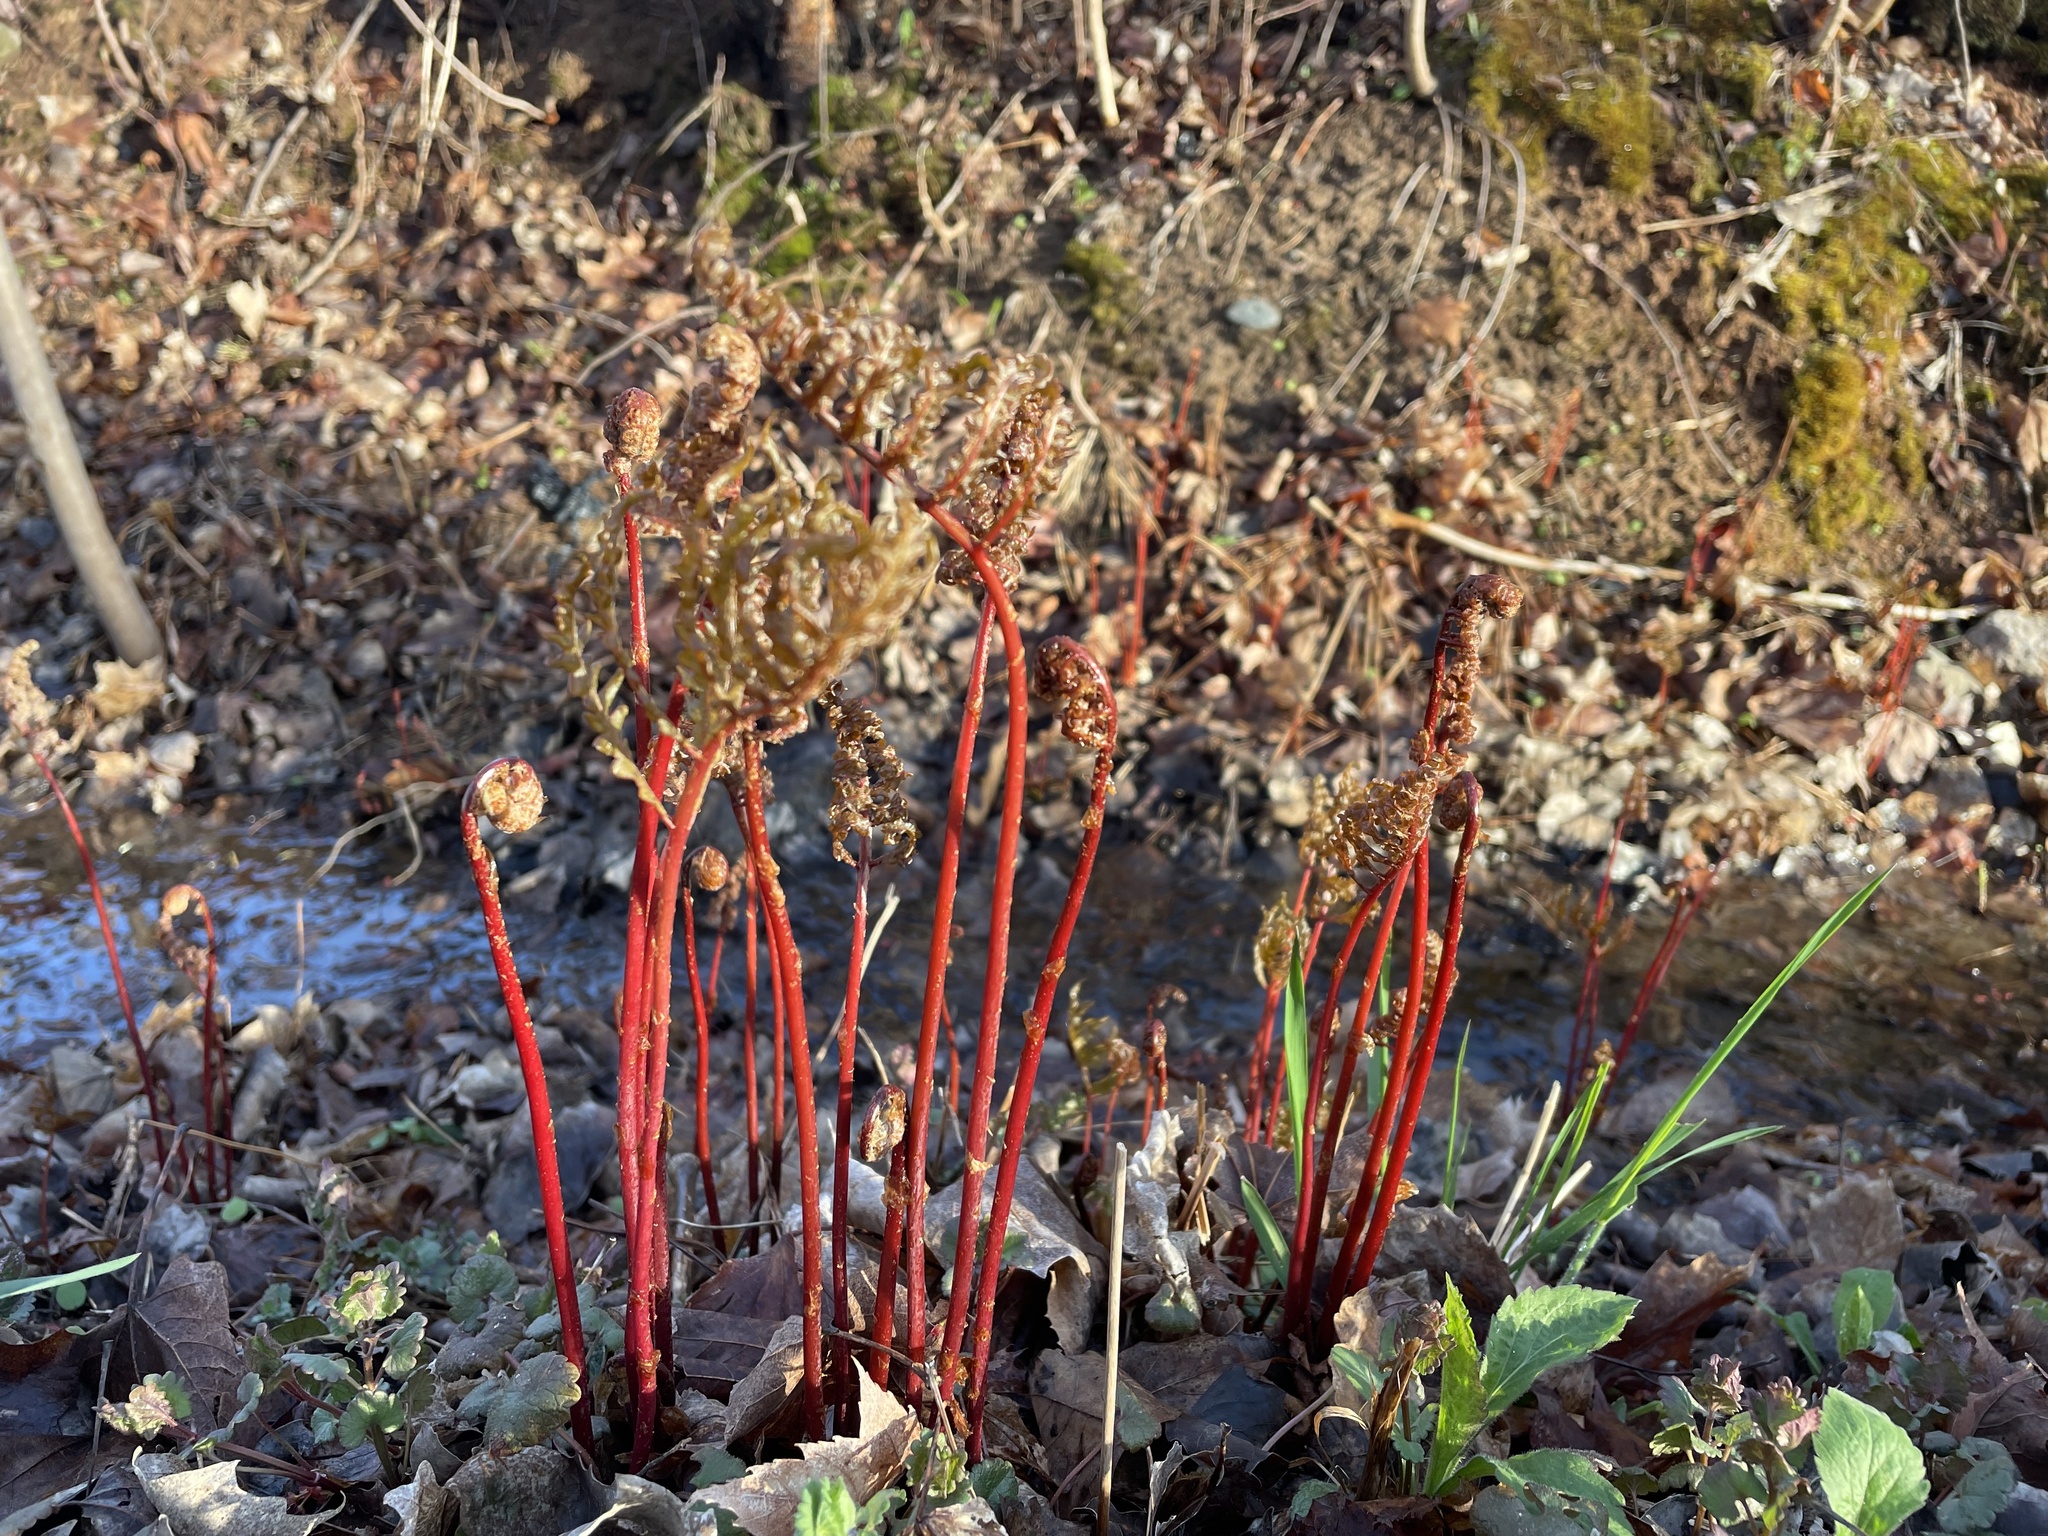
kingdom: Plantae
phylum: Tracheophyta
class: Polypodiopsida
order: Polypodiales
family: Onocleaceae
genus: Onoclea
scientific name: Onoclea sensibilis
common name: Sensitive fern
